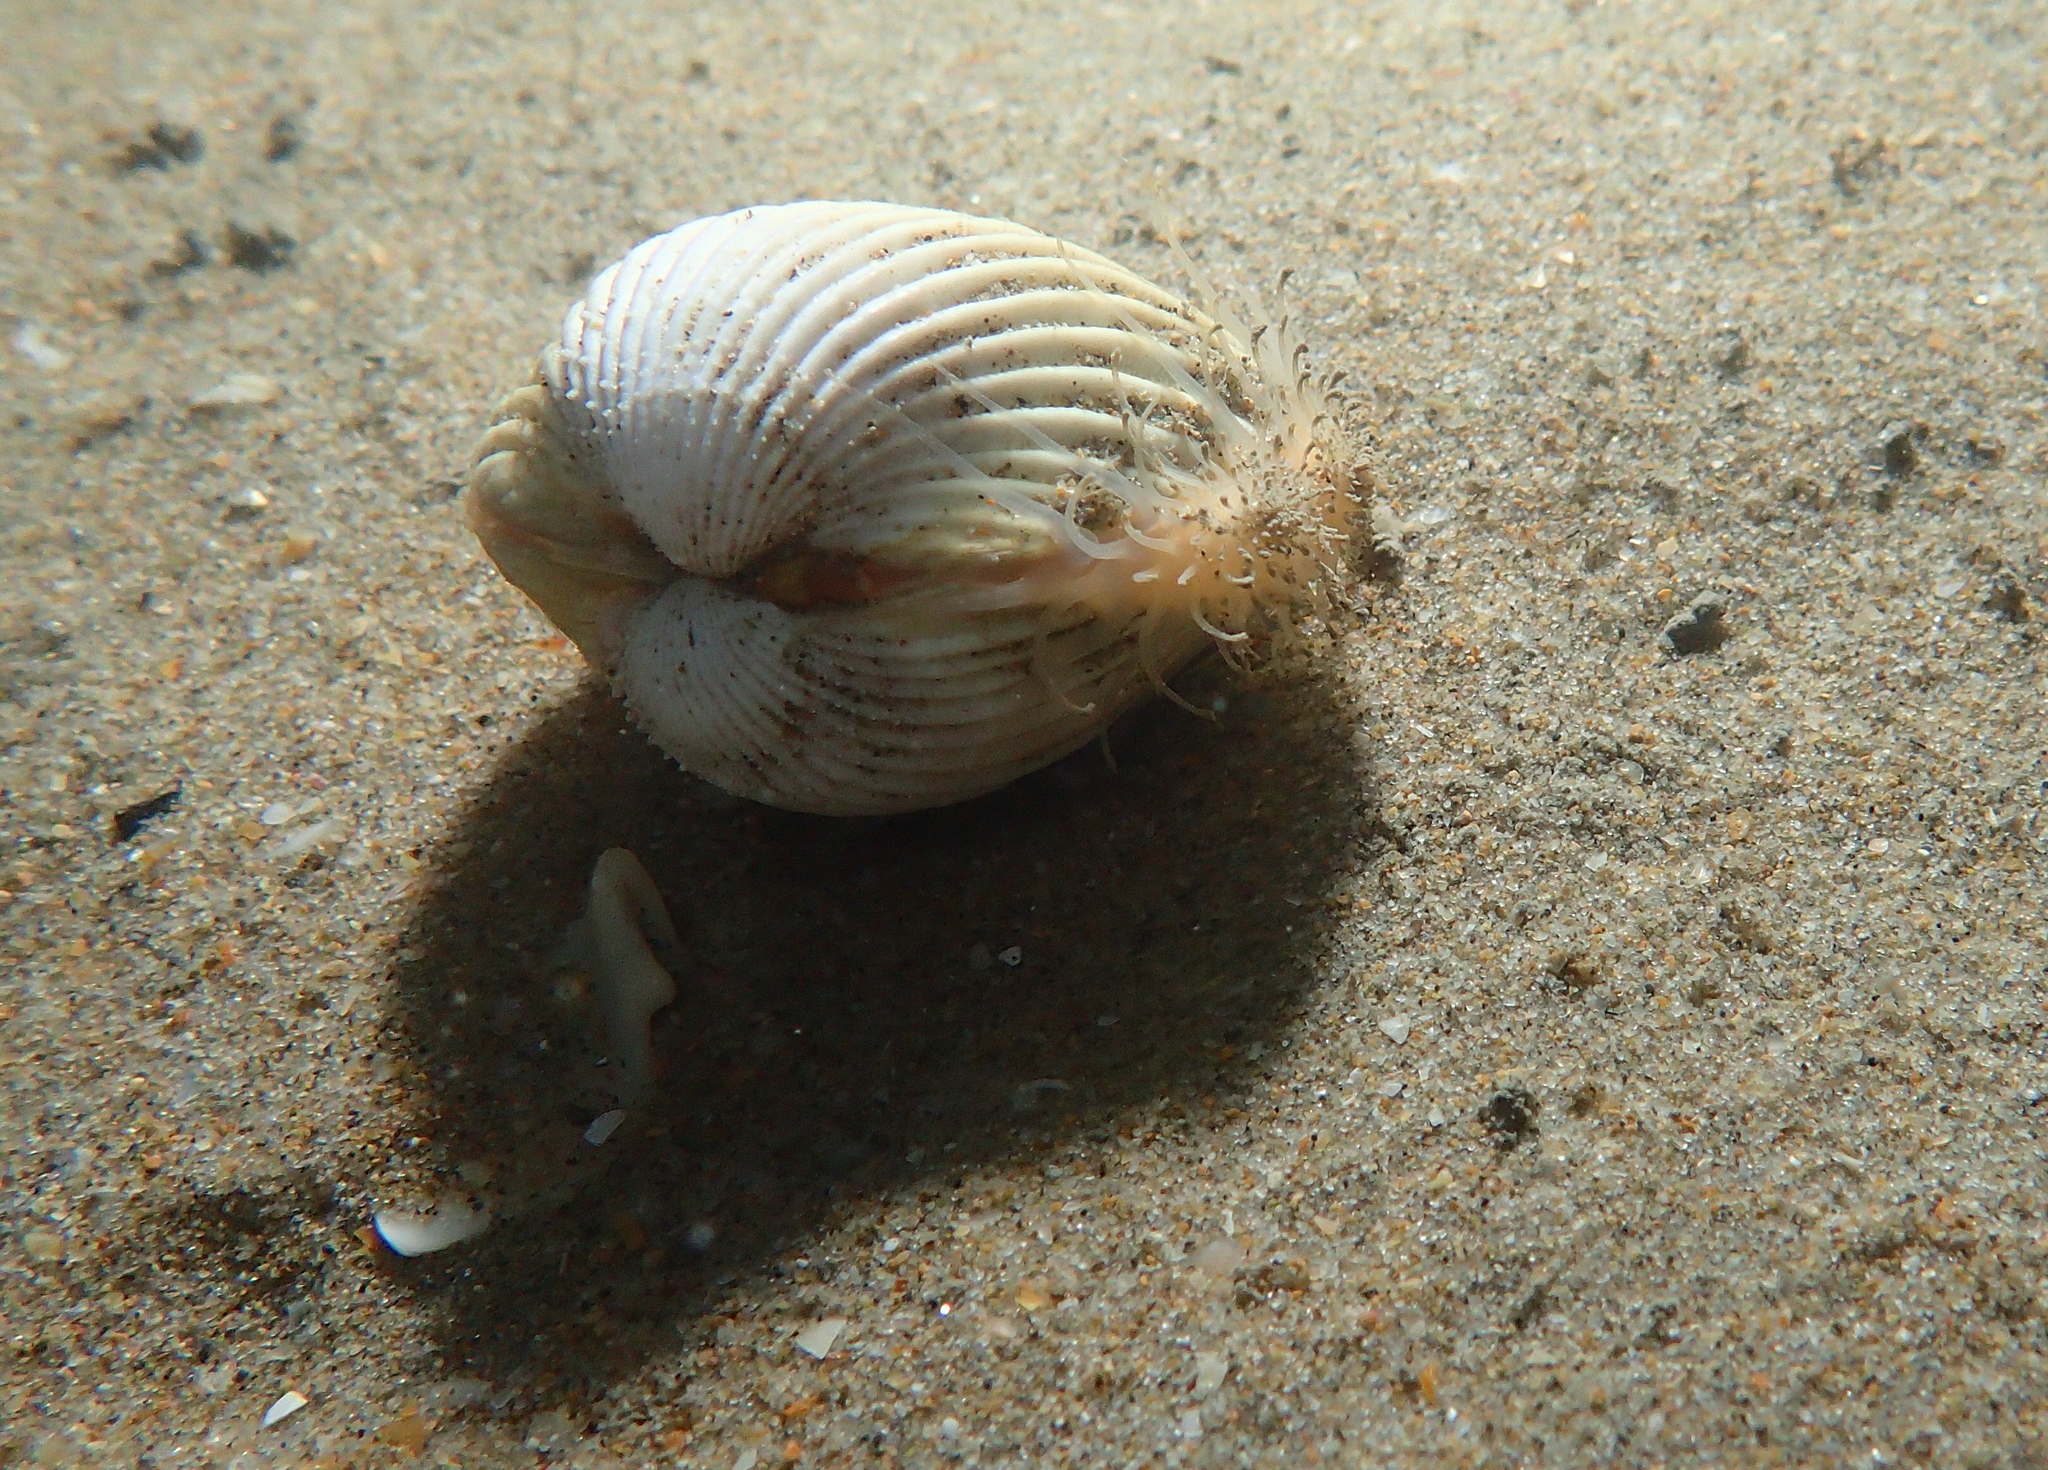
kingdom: Animalia
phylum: Mollusca
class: Bivalvia
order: Cardiida
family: Cardiidae
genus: Acanthocardia
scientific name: Acanthocardia echinata
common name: Prickly cockle
